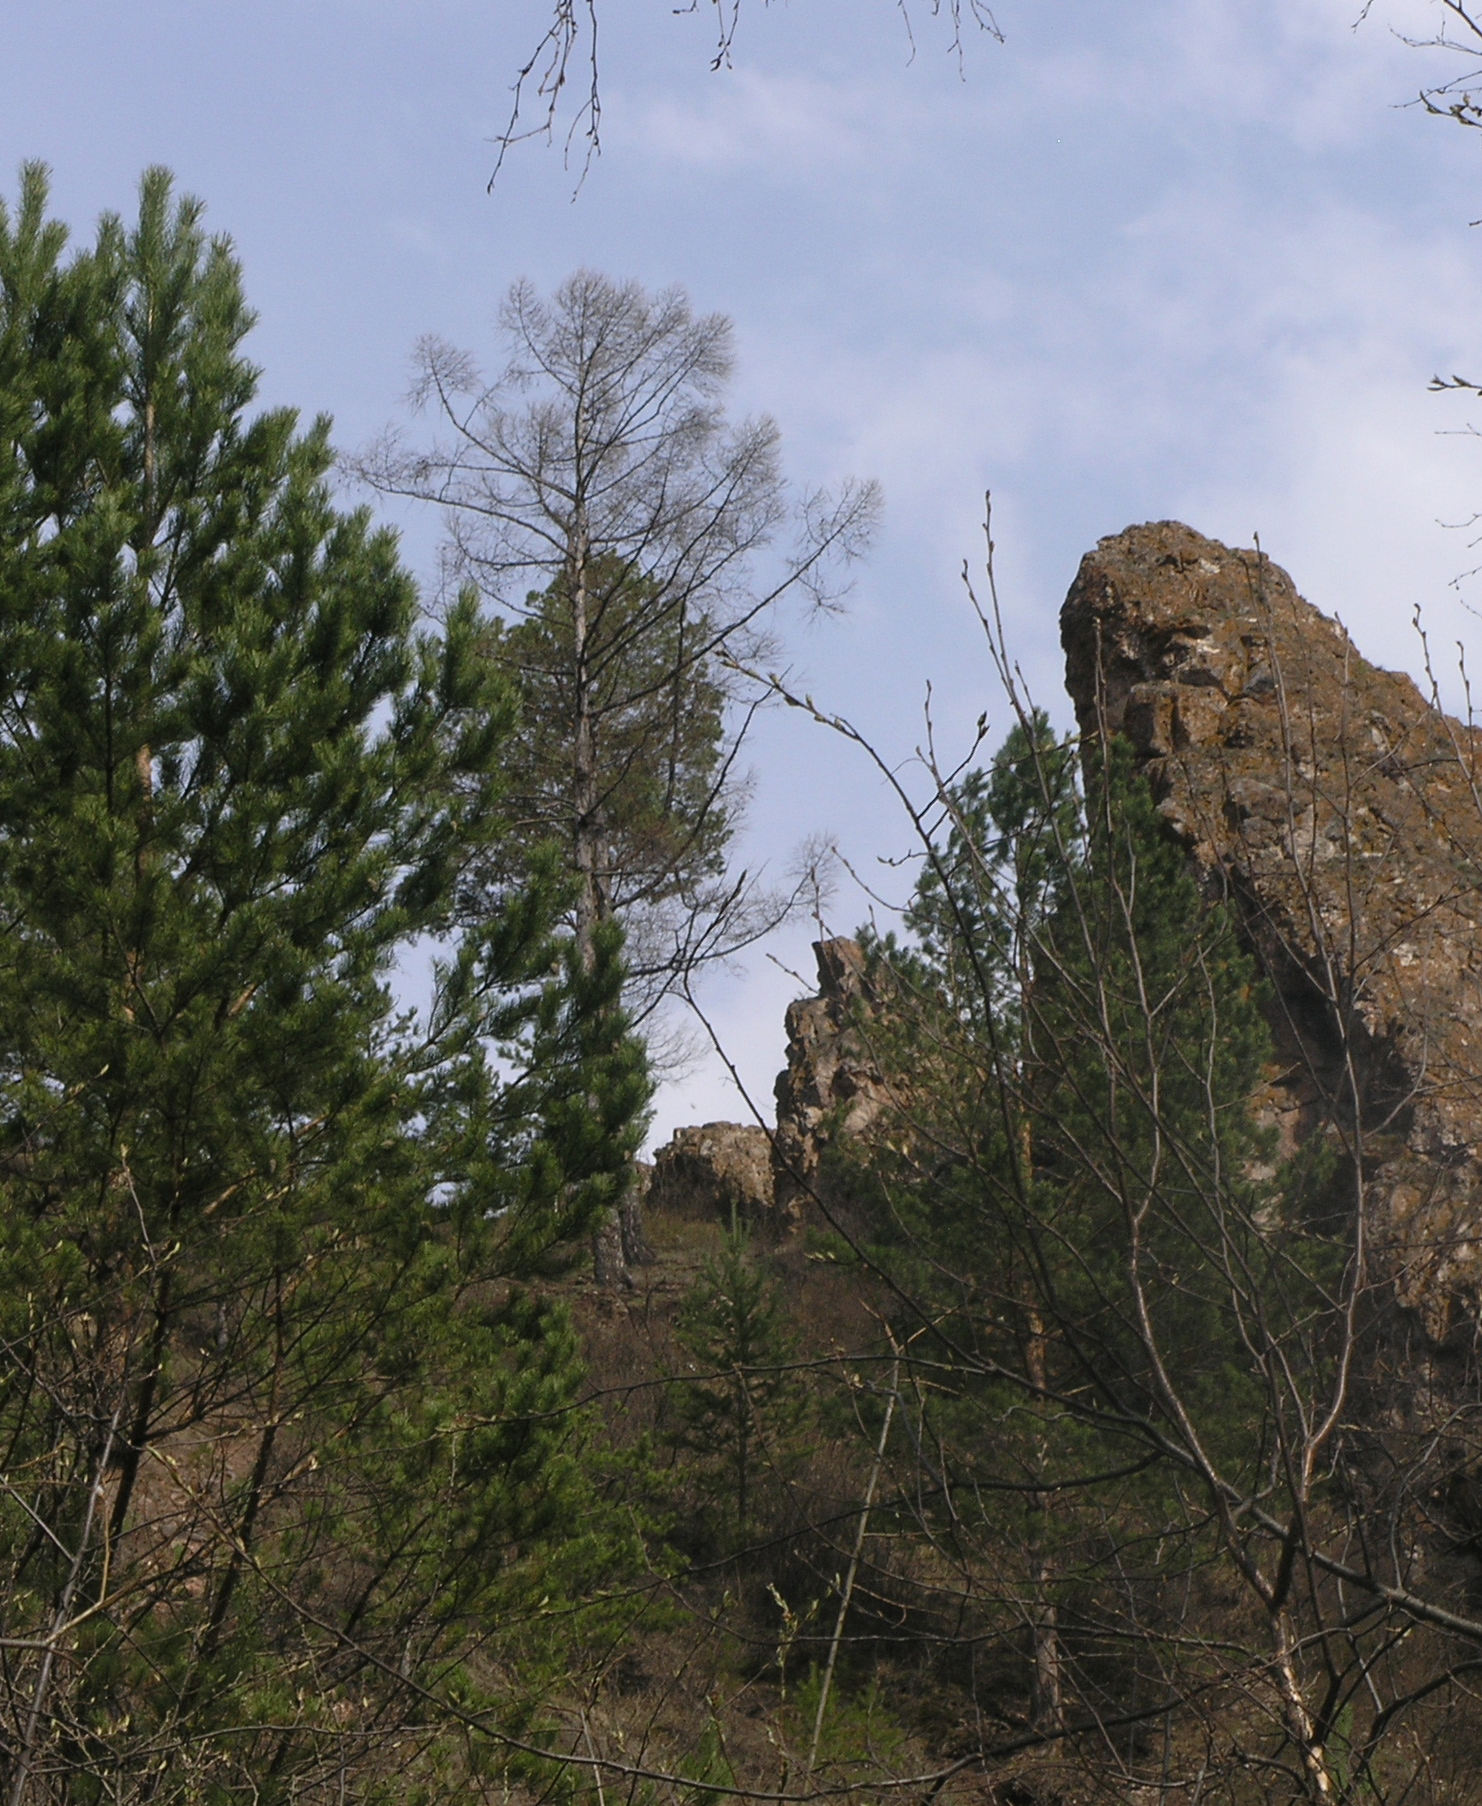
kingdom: Plantae
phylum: Tracheophyta
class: Pinopsida
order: Pinales
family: Pinaceae
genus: Larix
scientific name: Larix sibirica
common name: Siberian larch
